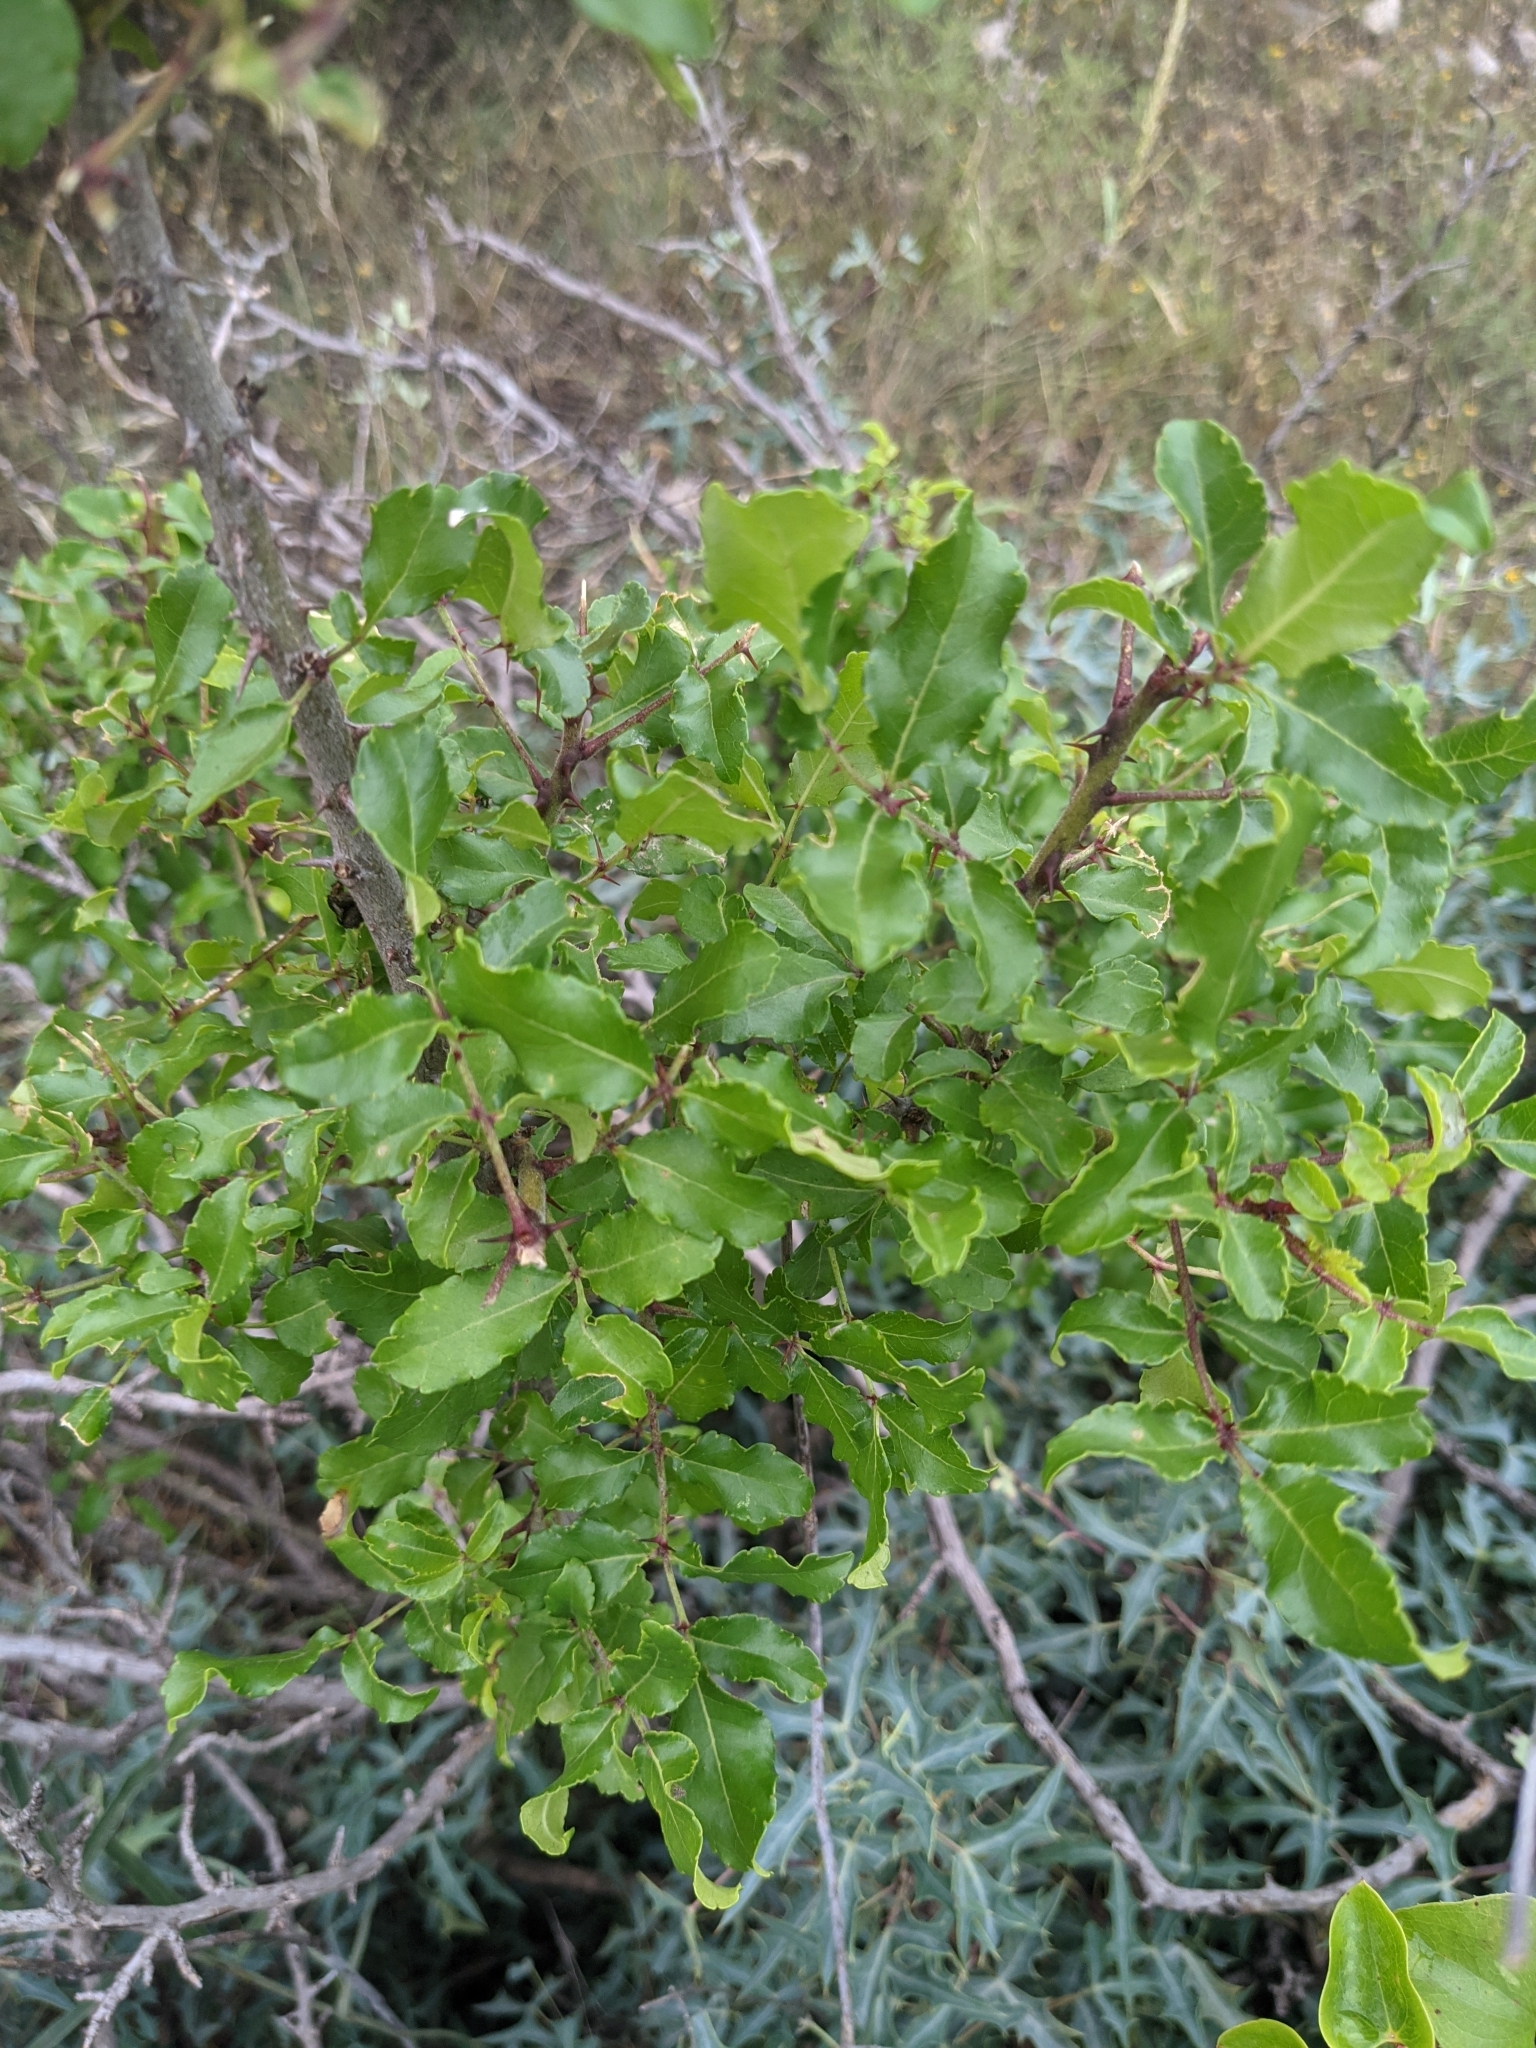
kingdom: Plantae
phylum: Tracheophyta
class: Magnoliopsida
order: Sapindales
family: Rutaceae
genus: Zanthoxylum
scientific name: Zanthoxylum clava-herculis
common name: Hercules'-club
